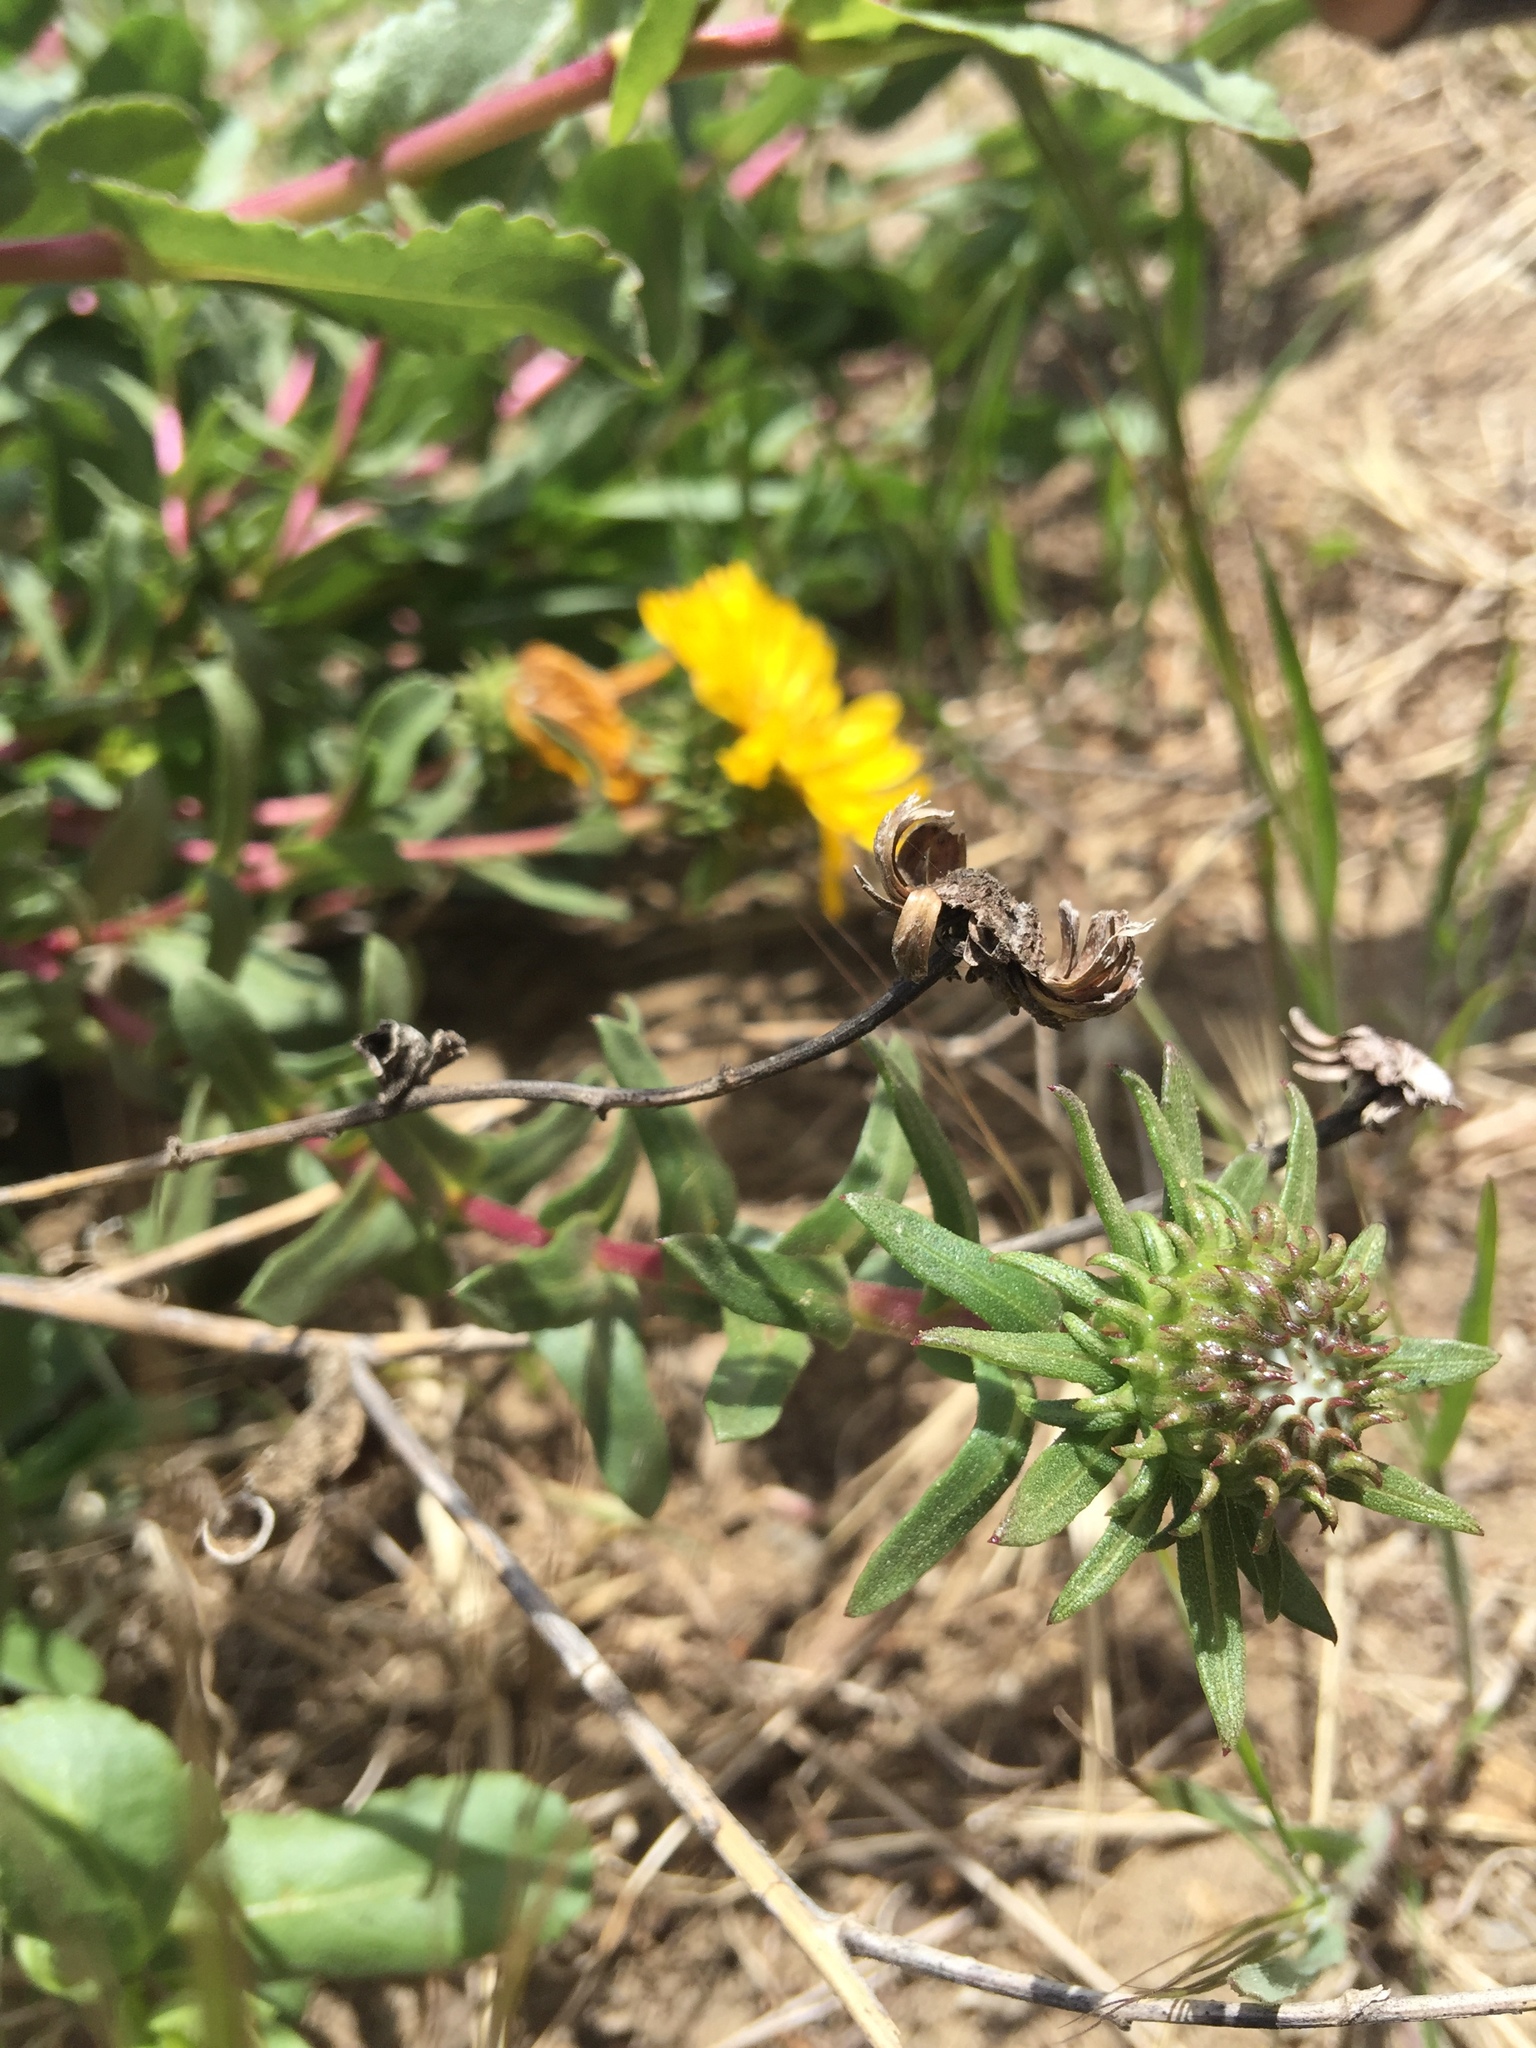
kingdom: Plantae
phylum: Tracheophyta
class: Magnoliopsida
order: Asterales
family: Asteraceae
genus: Grindelia
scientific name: Grindelia hirsutula
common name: Hairy gumweed
